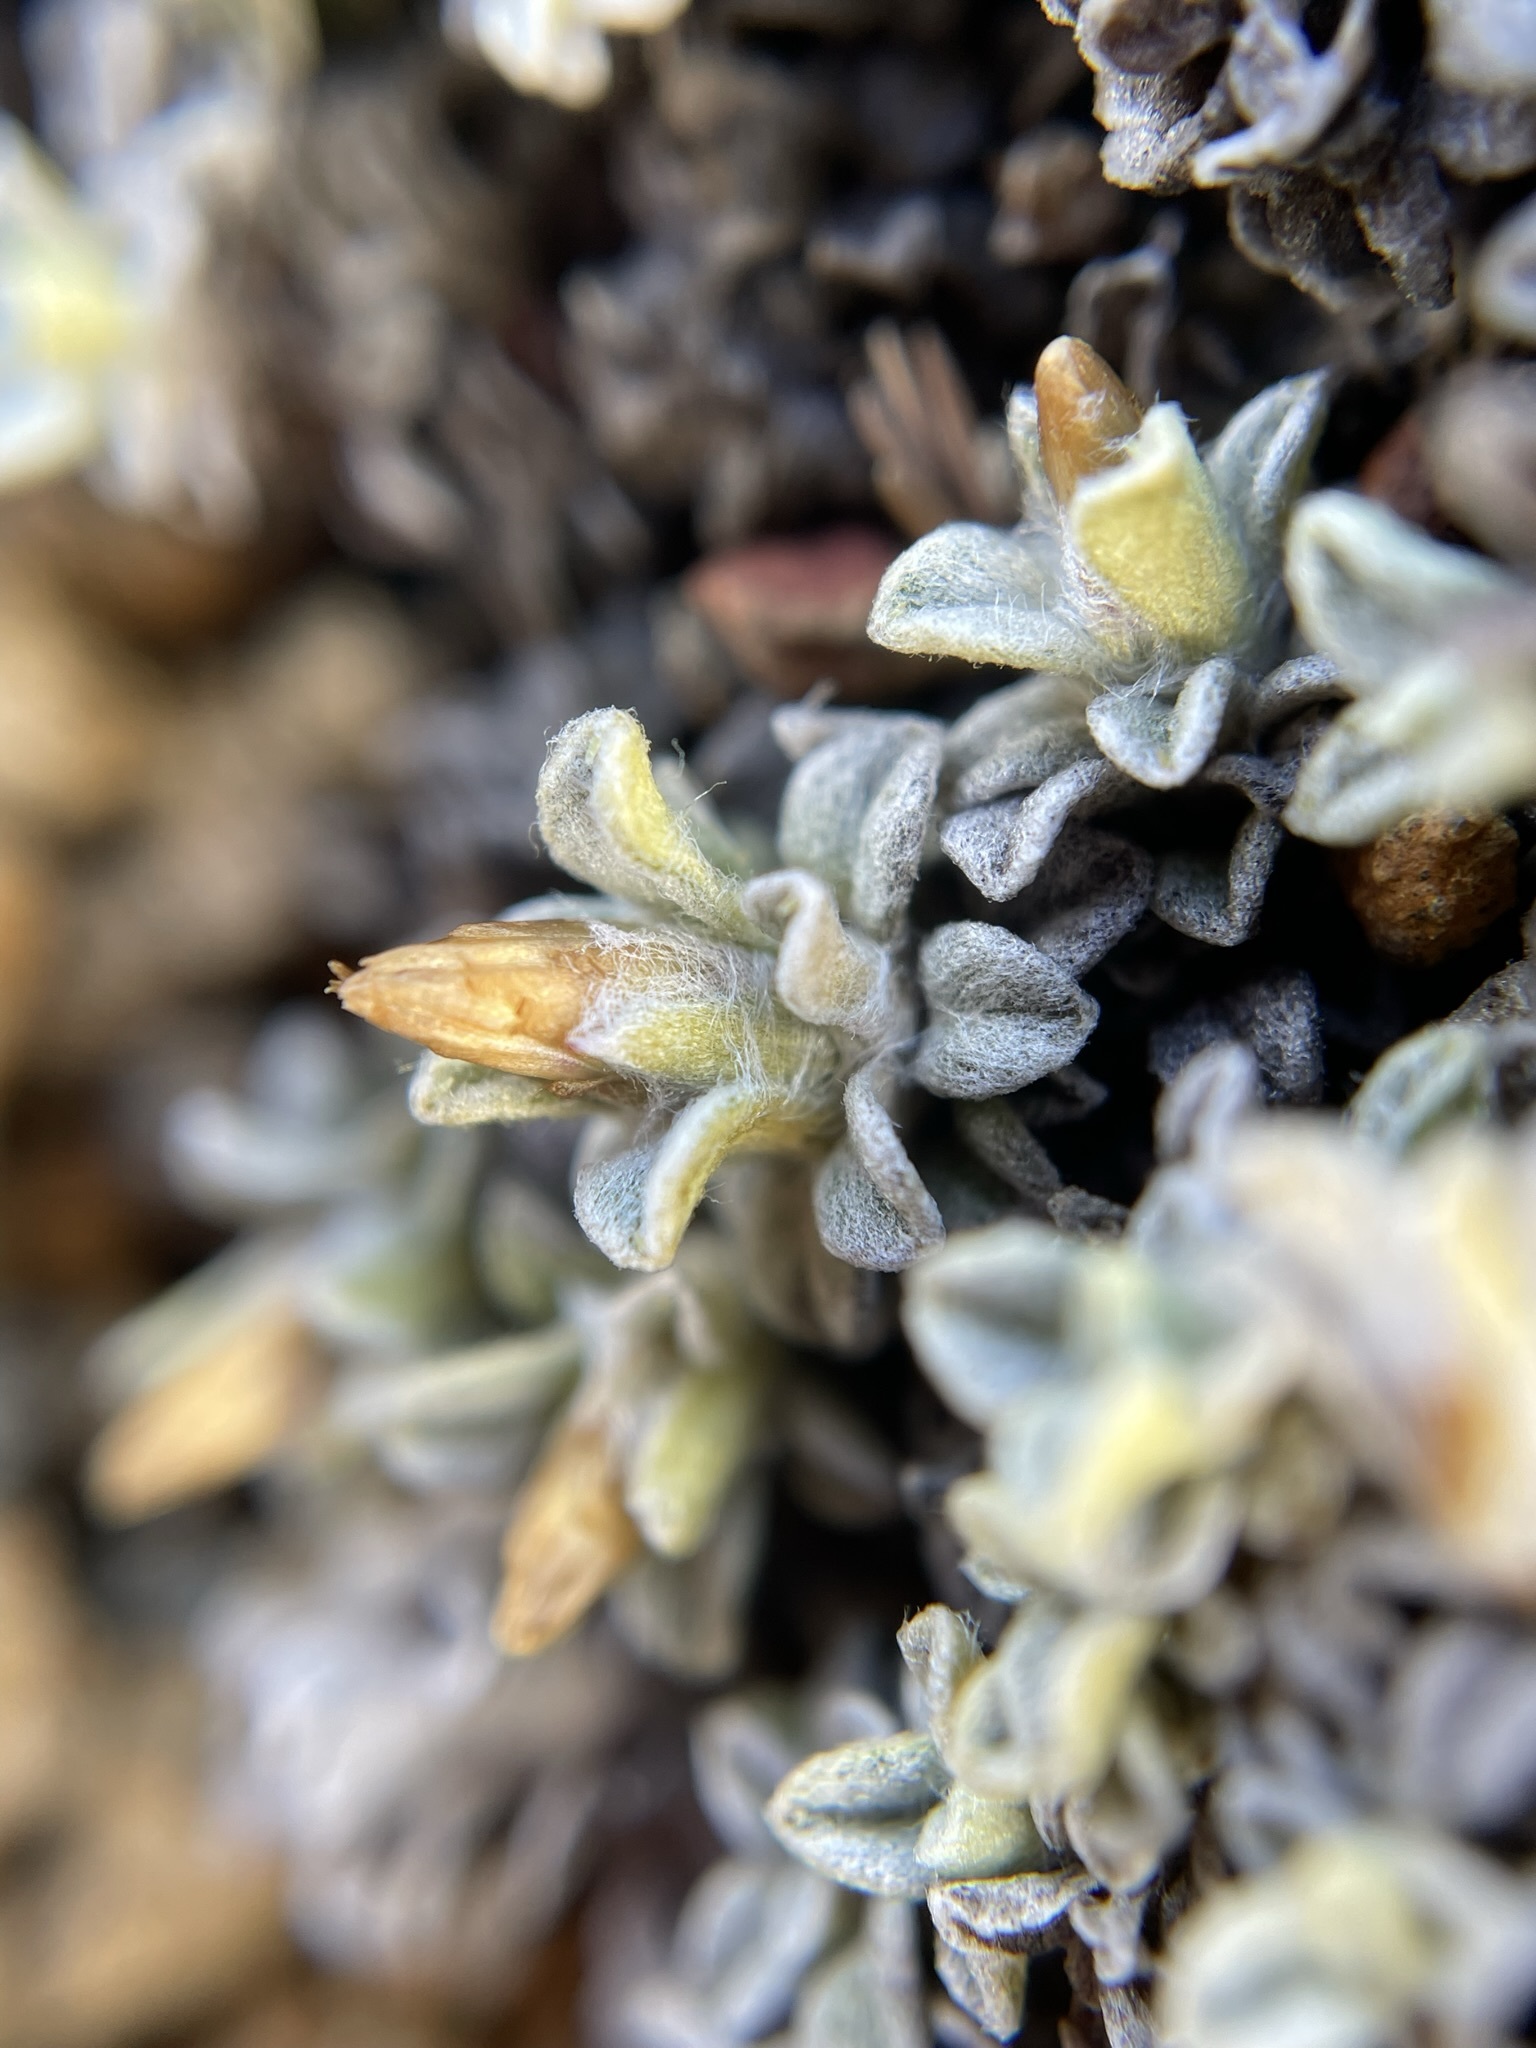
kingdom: Plantae
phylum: Tracheophyta
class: Magnoliopsida
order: Asterales
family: Asteraceae
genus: Ewartia
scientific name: Ewartia planchonii
